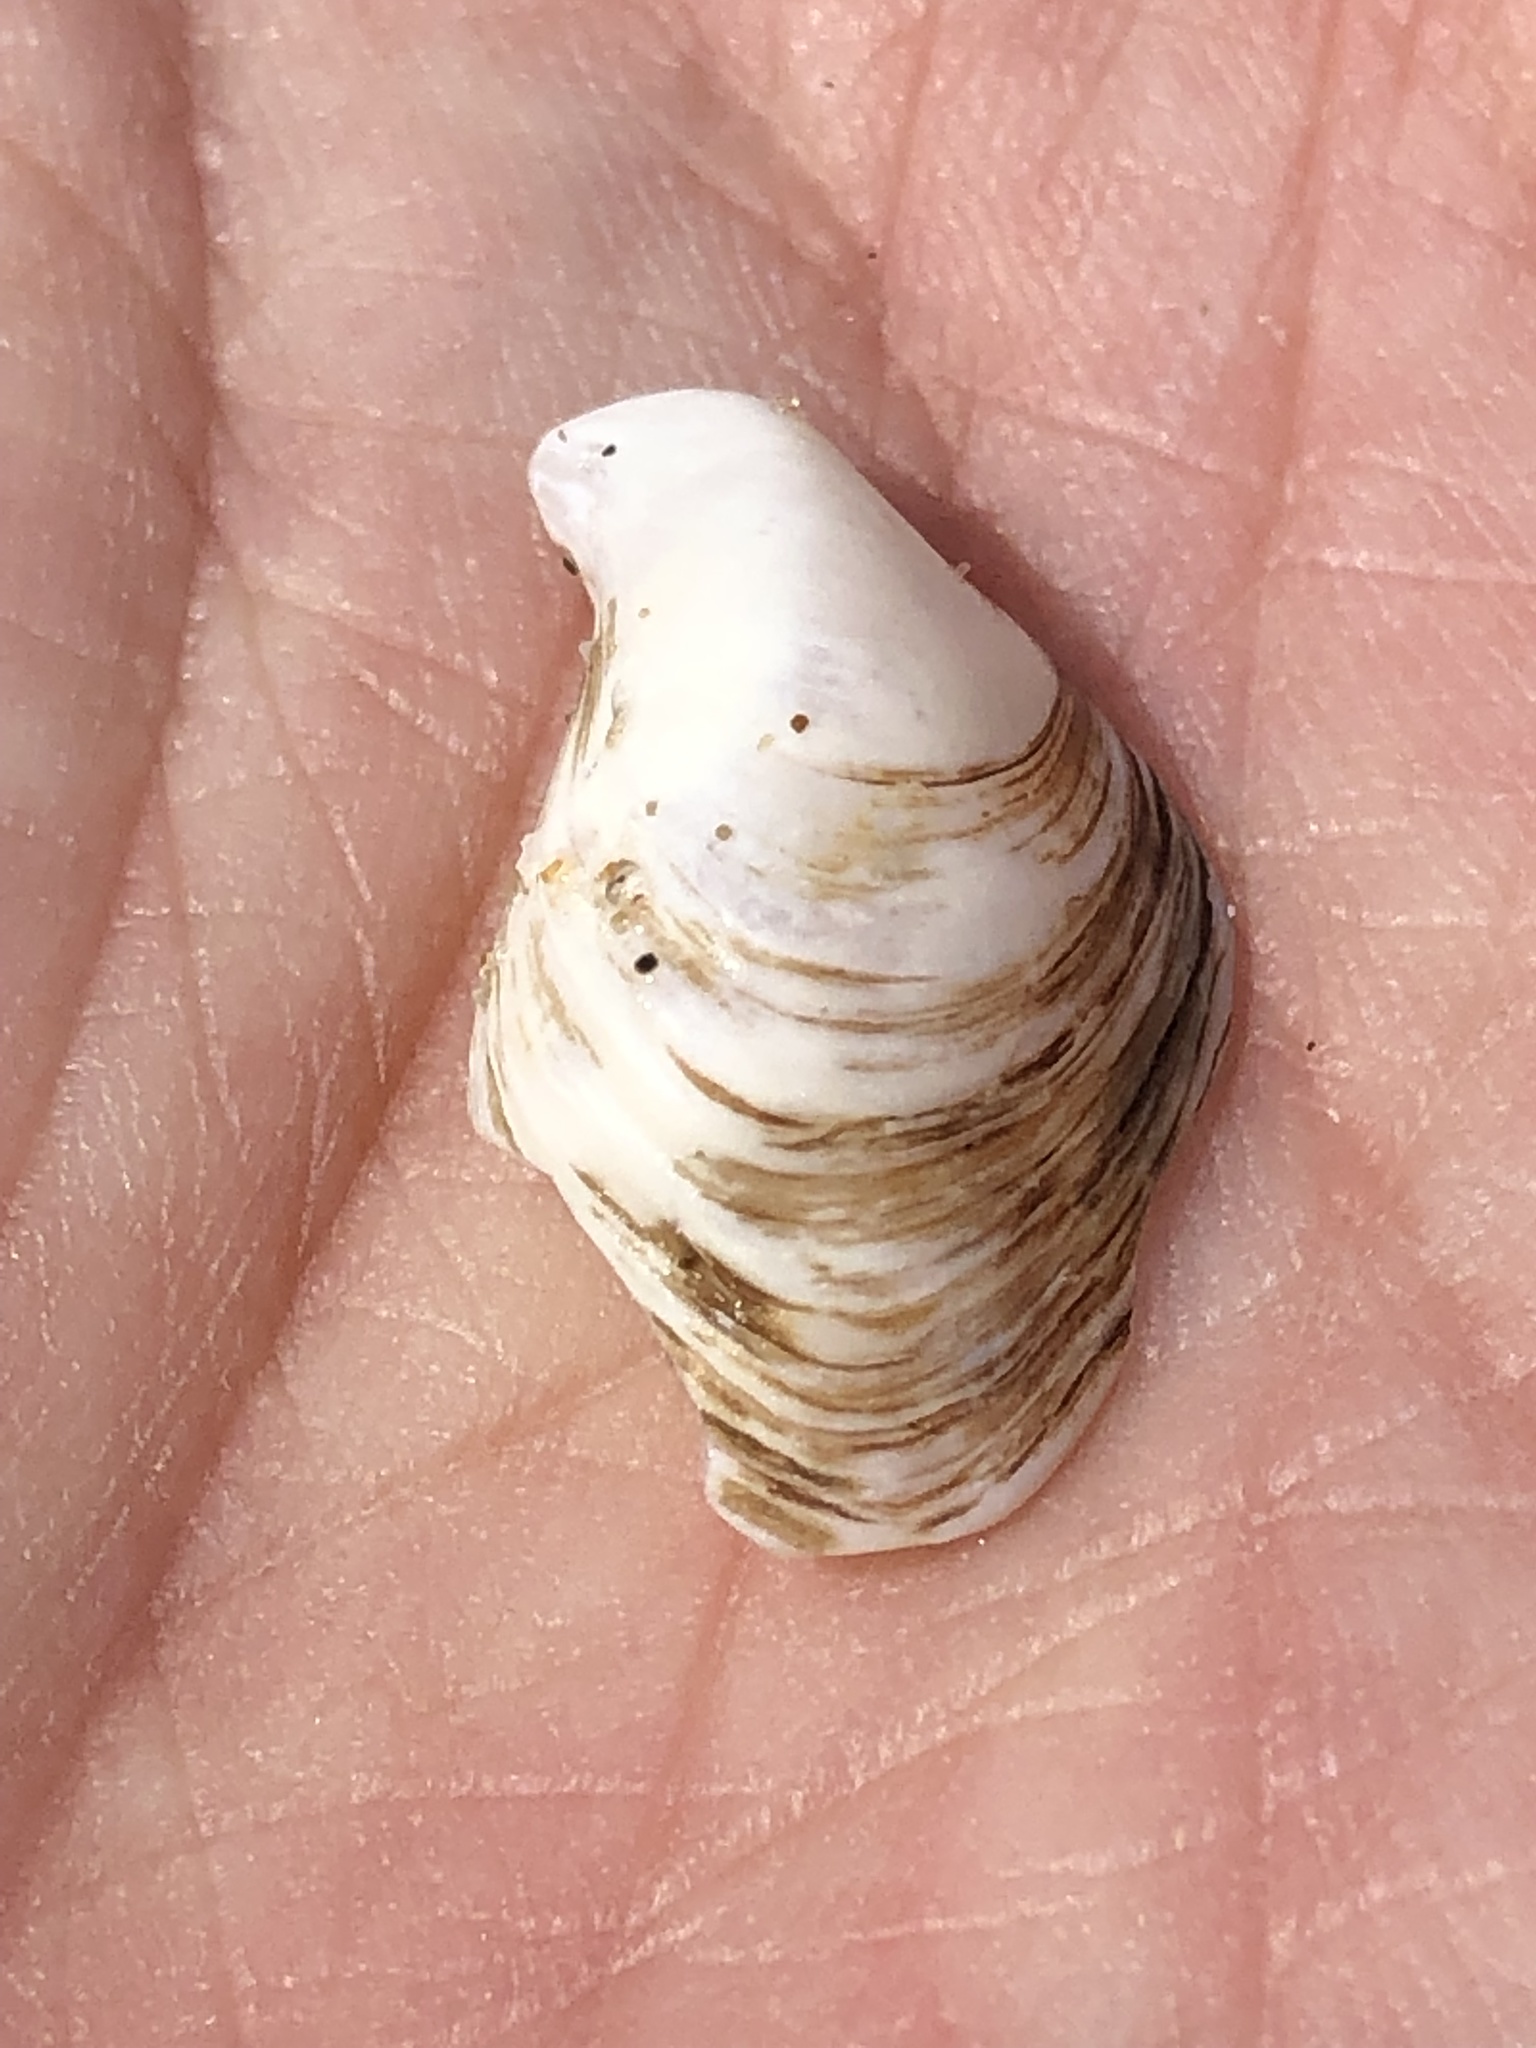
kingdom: Animalia
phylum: Mollusca
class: Bivalvia
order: Myida
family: Dreissenidae
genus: Dreissena
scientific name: Dreissena bugensis
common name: Quagga mussel
